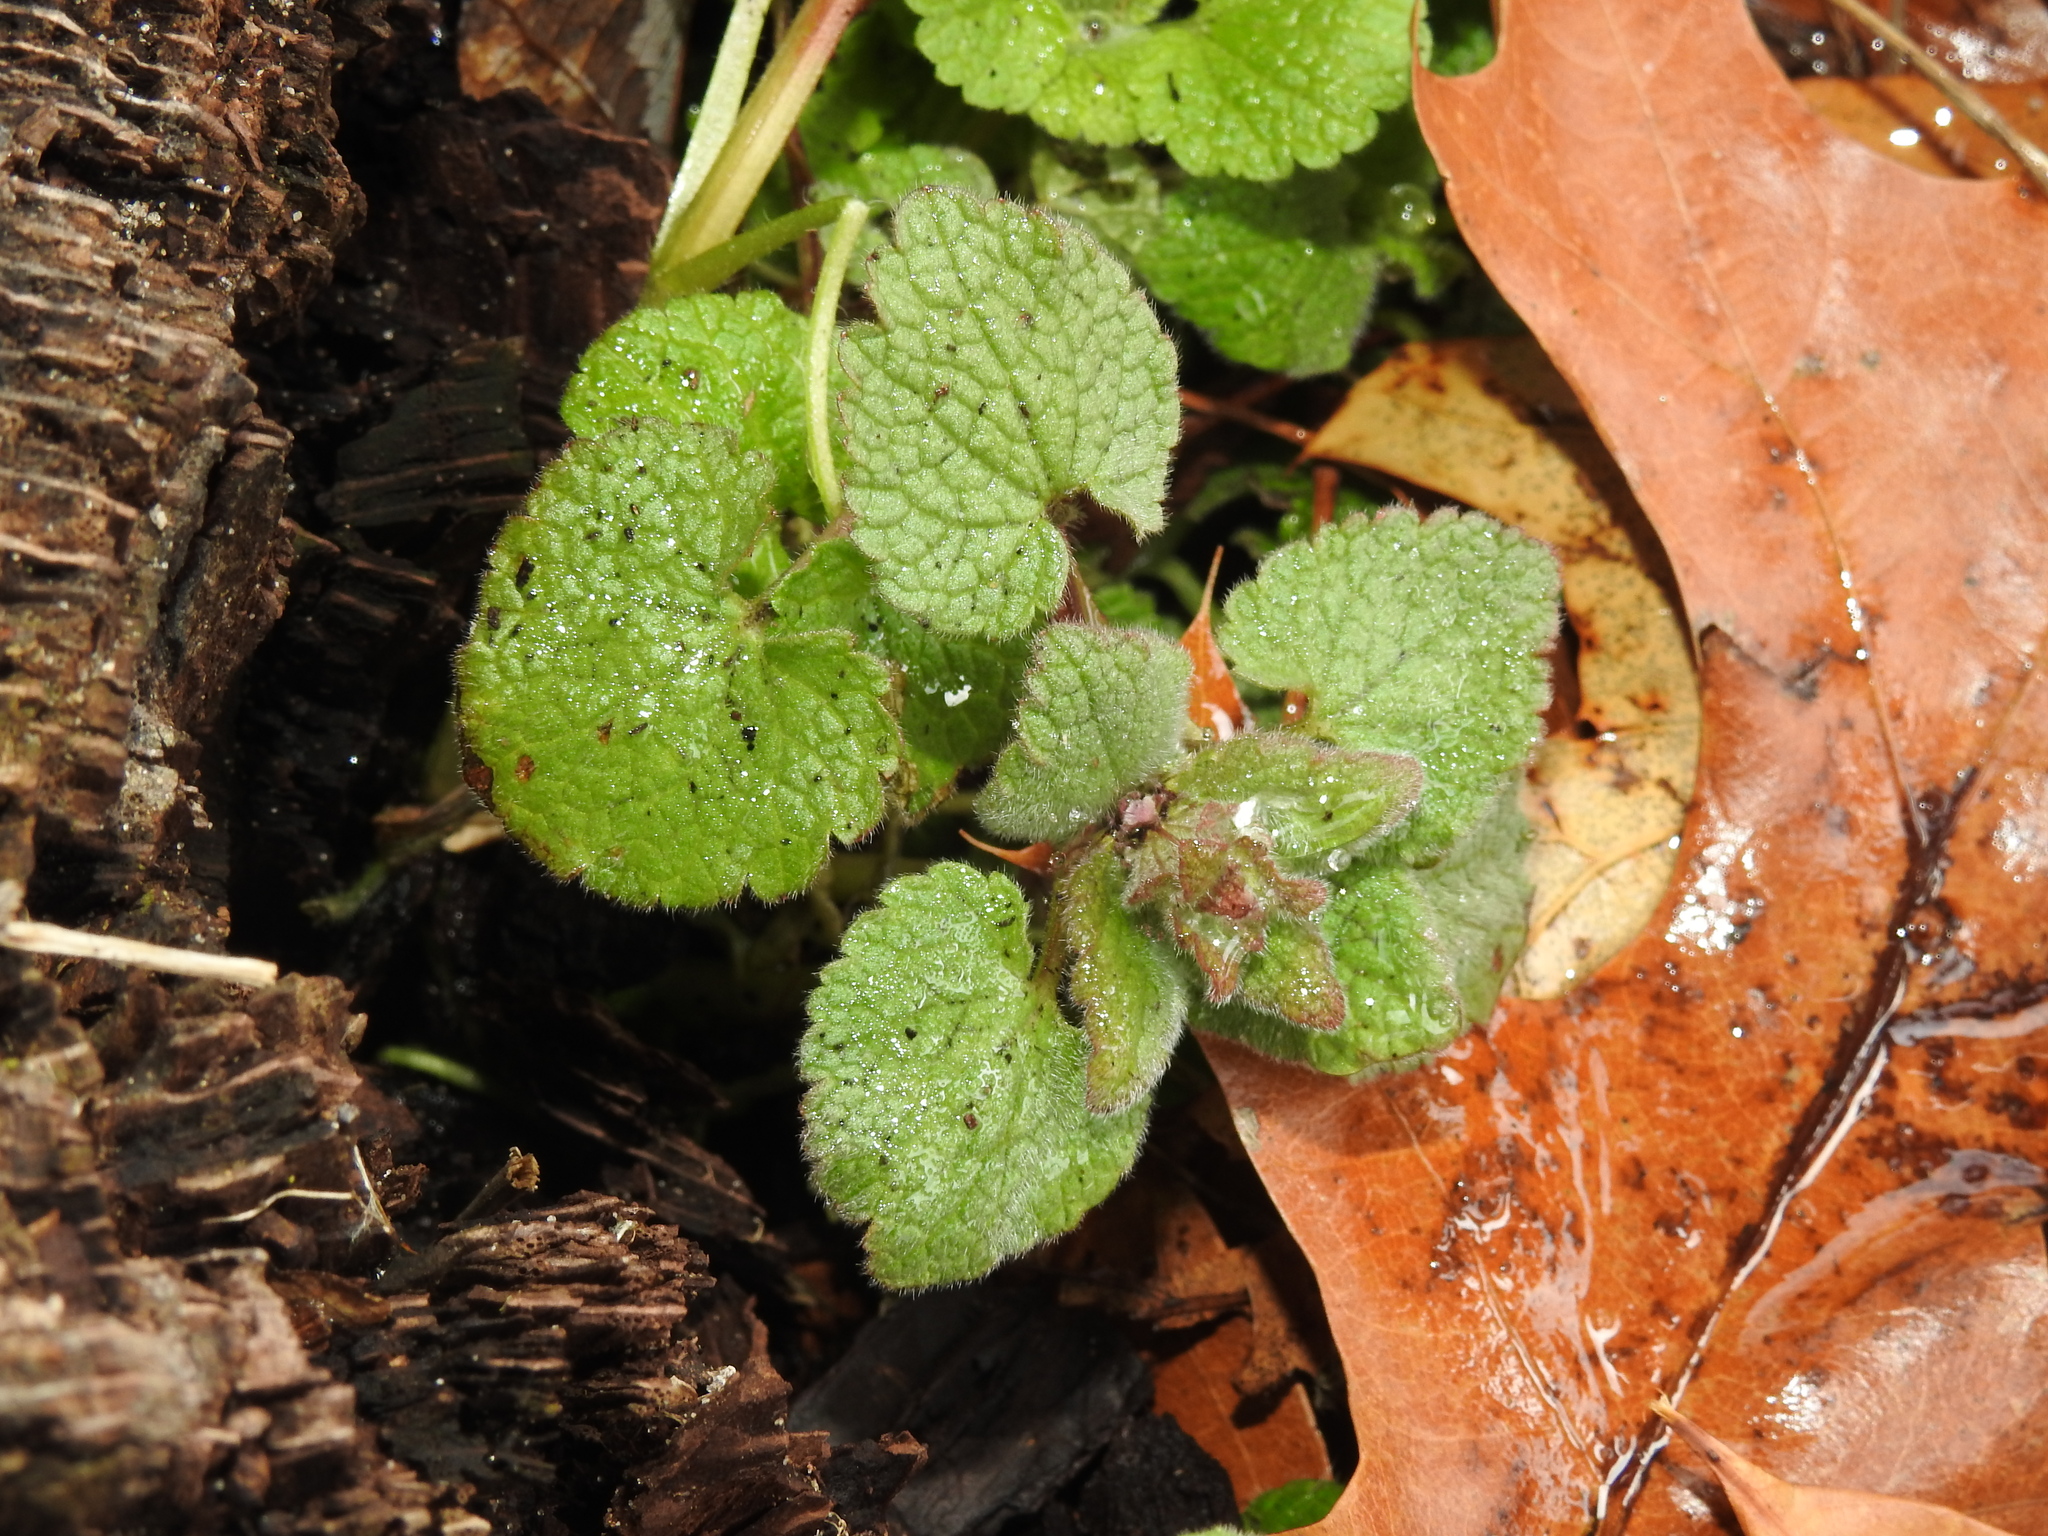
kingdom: Plantae
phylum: Tracheophyta
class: Magnoliopsida
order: Lamiales
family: Lamiaceae
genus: Lamium
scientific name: Lamium purpureum
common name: Red dead-nettle
